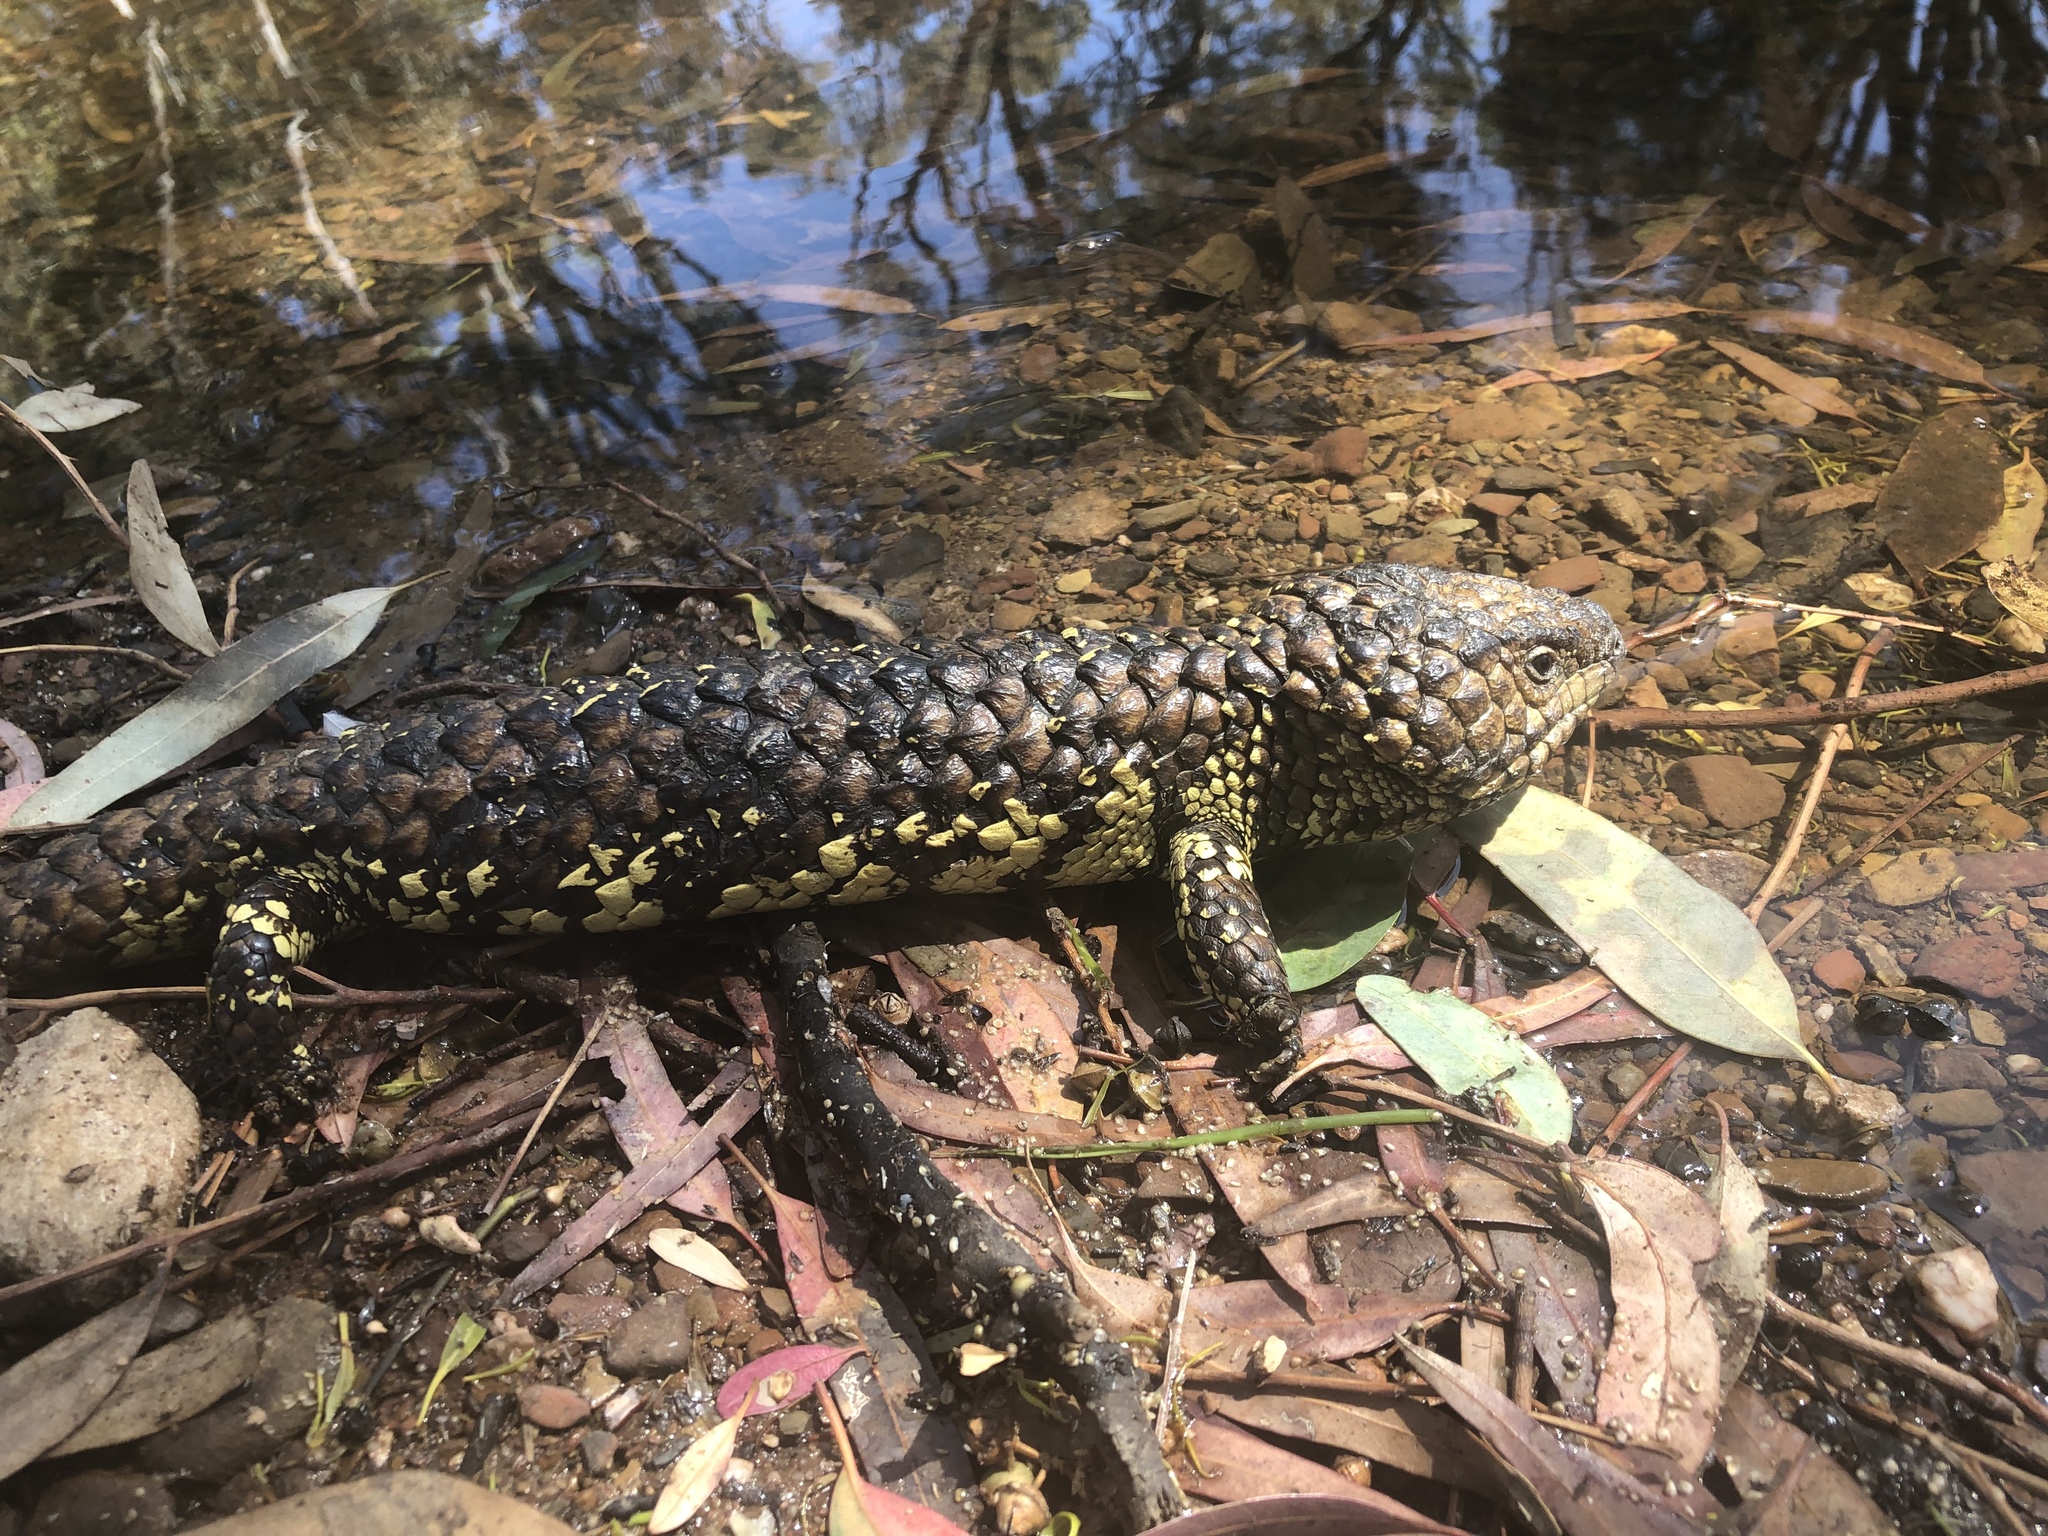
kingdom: Animalia
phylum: Chordata
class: Squamata
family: Scincidae
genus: Tiliqua
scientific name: Tiliqua rugosa
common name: Pinecone lizard
